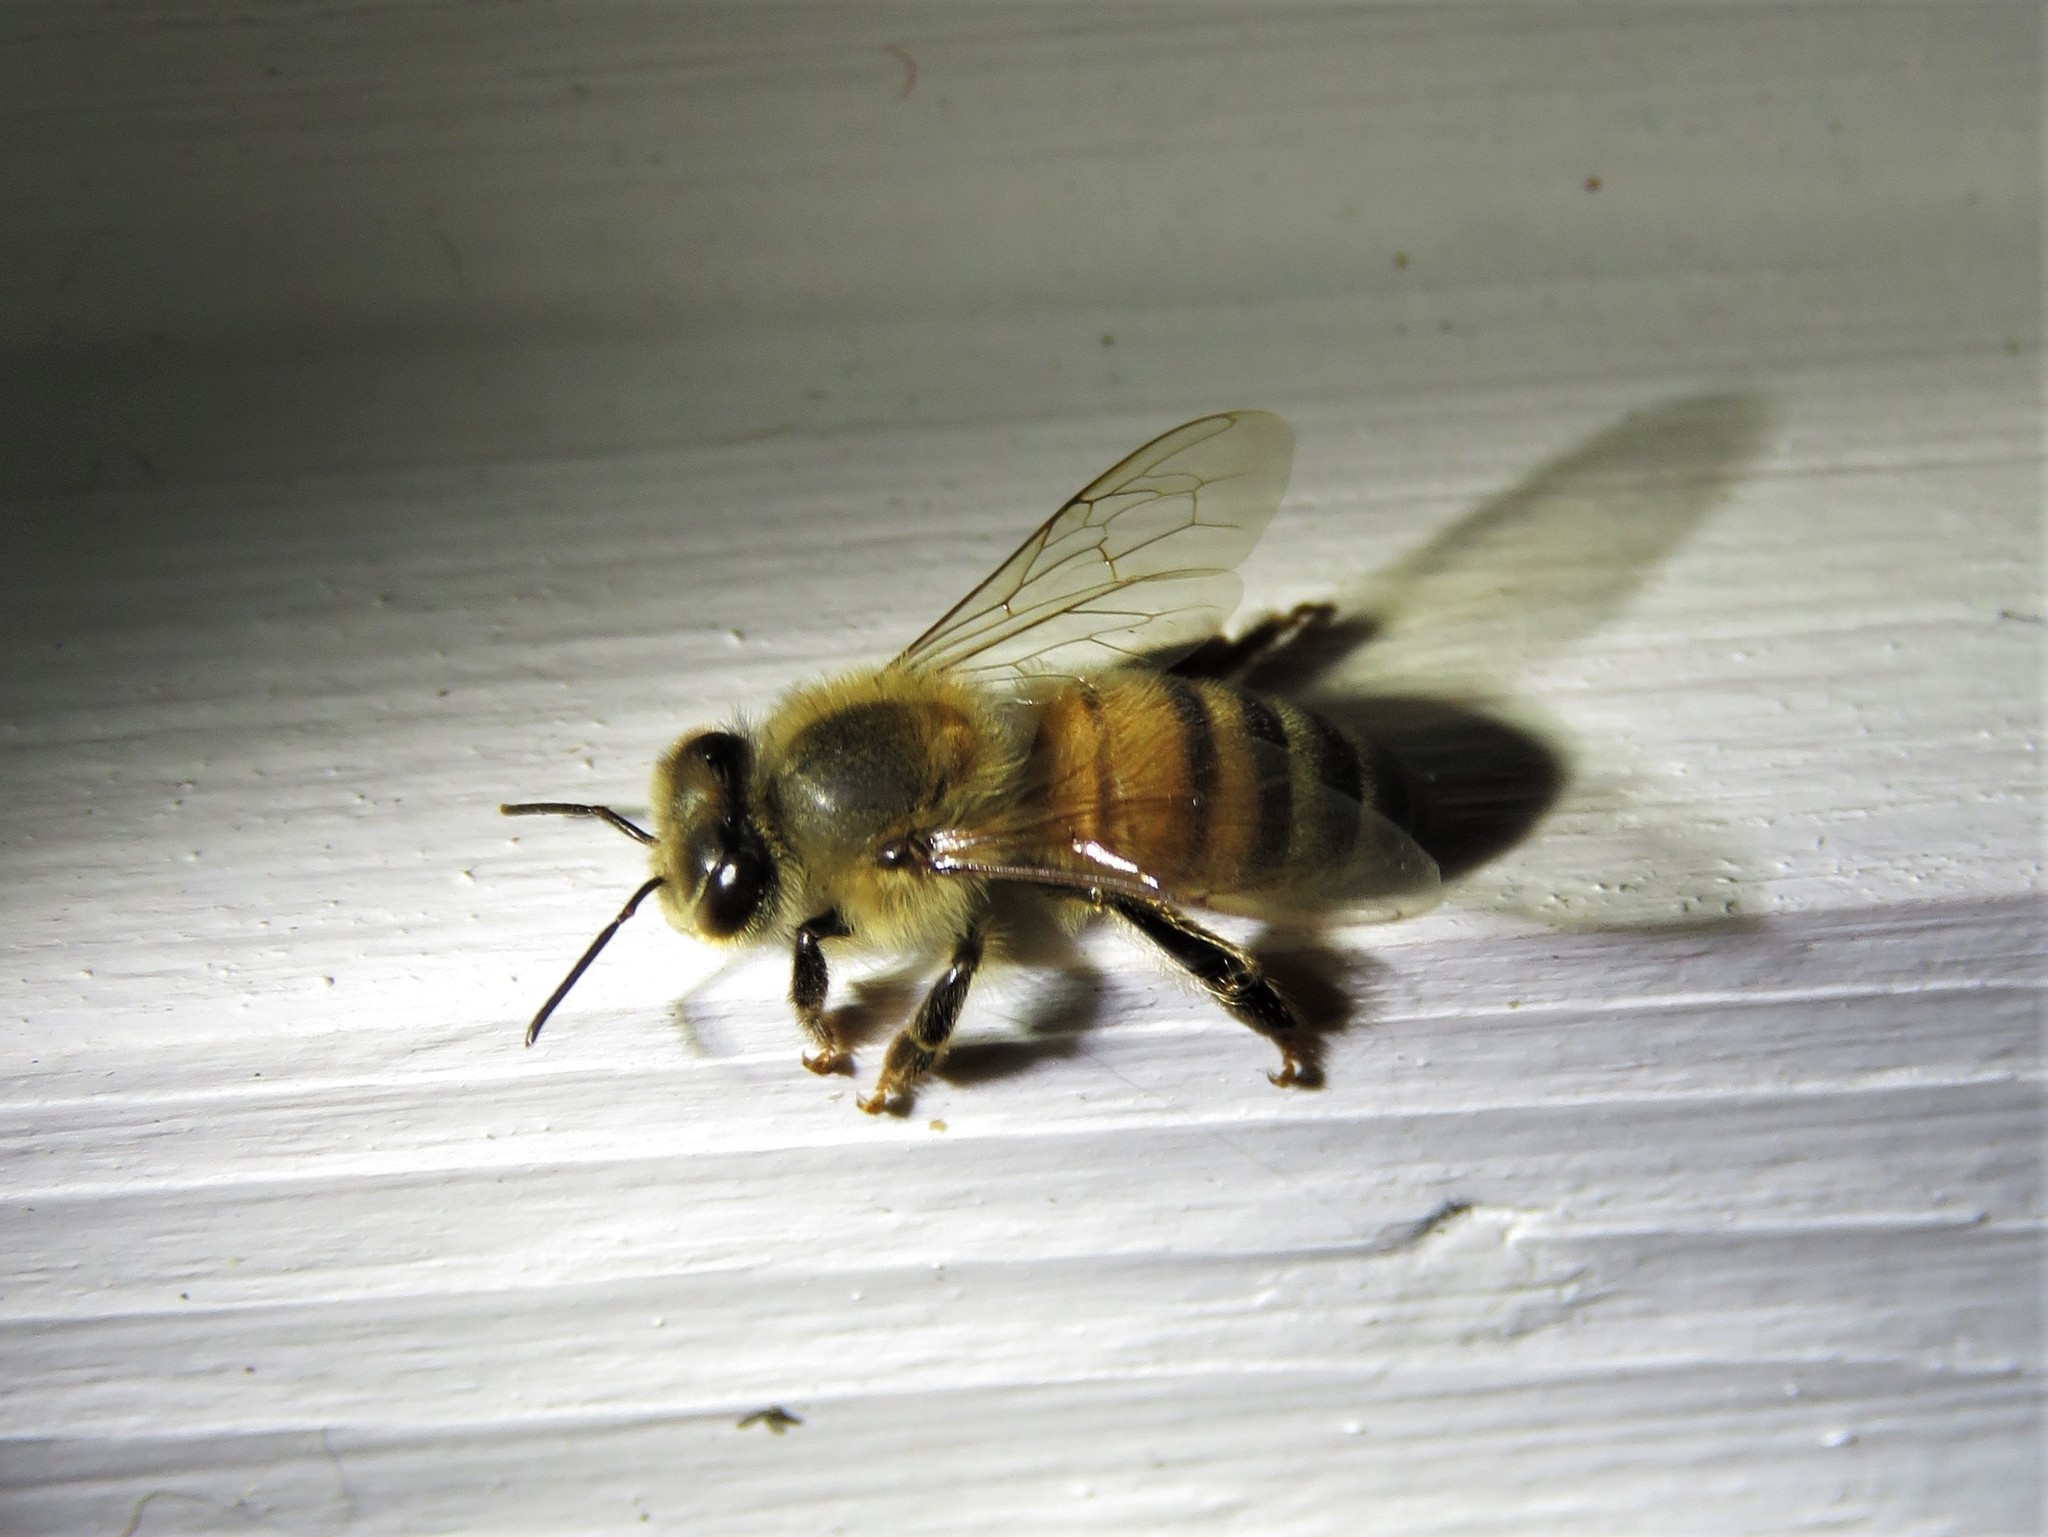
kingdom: Animalia
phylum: Arthropoda
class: Insecta
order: Hymenoptera
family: Apidae
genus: Apis
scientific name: Apis mellifera
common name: Honey bee
